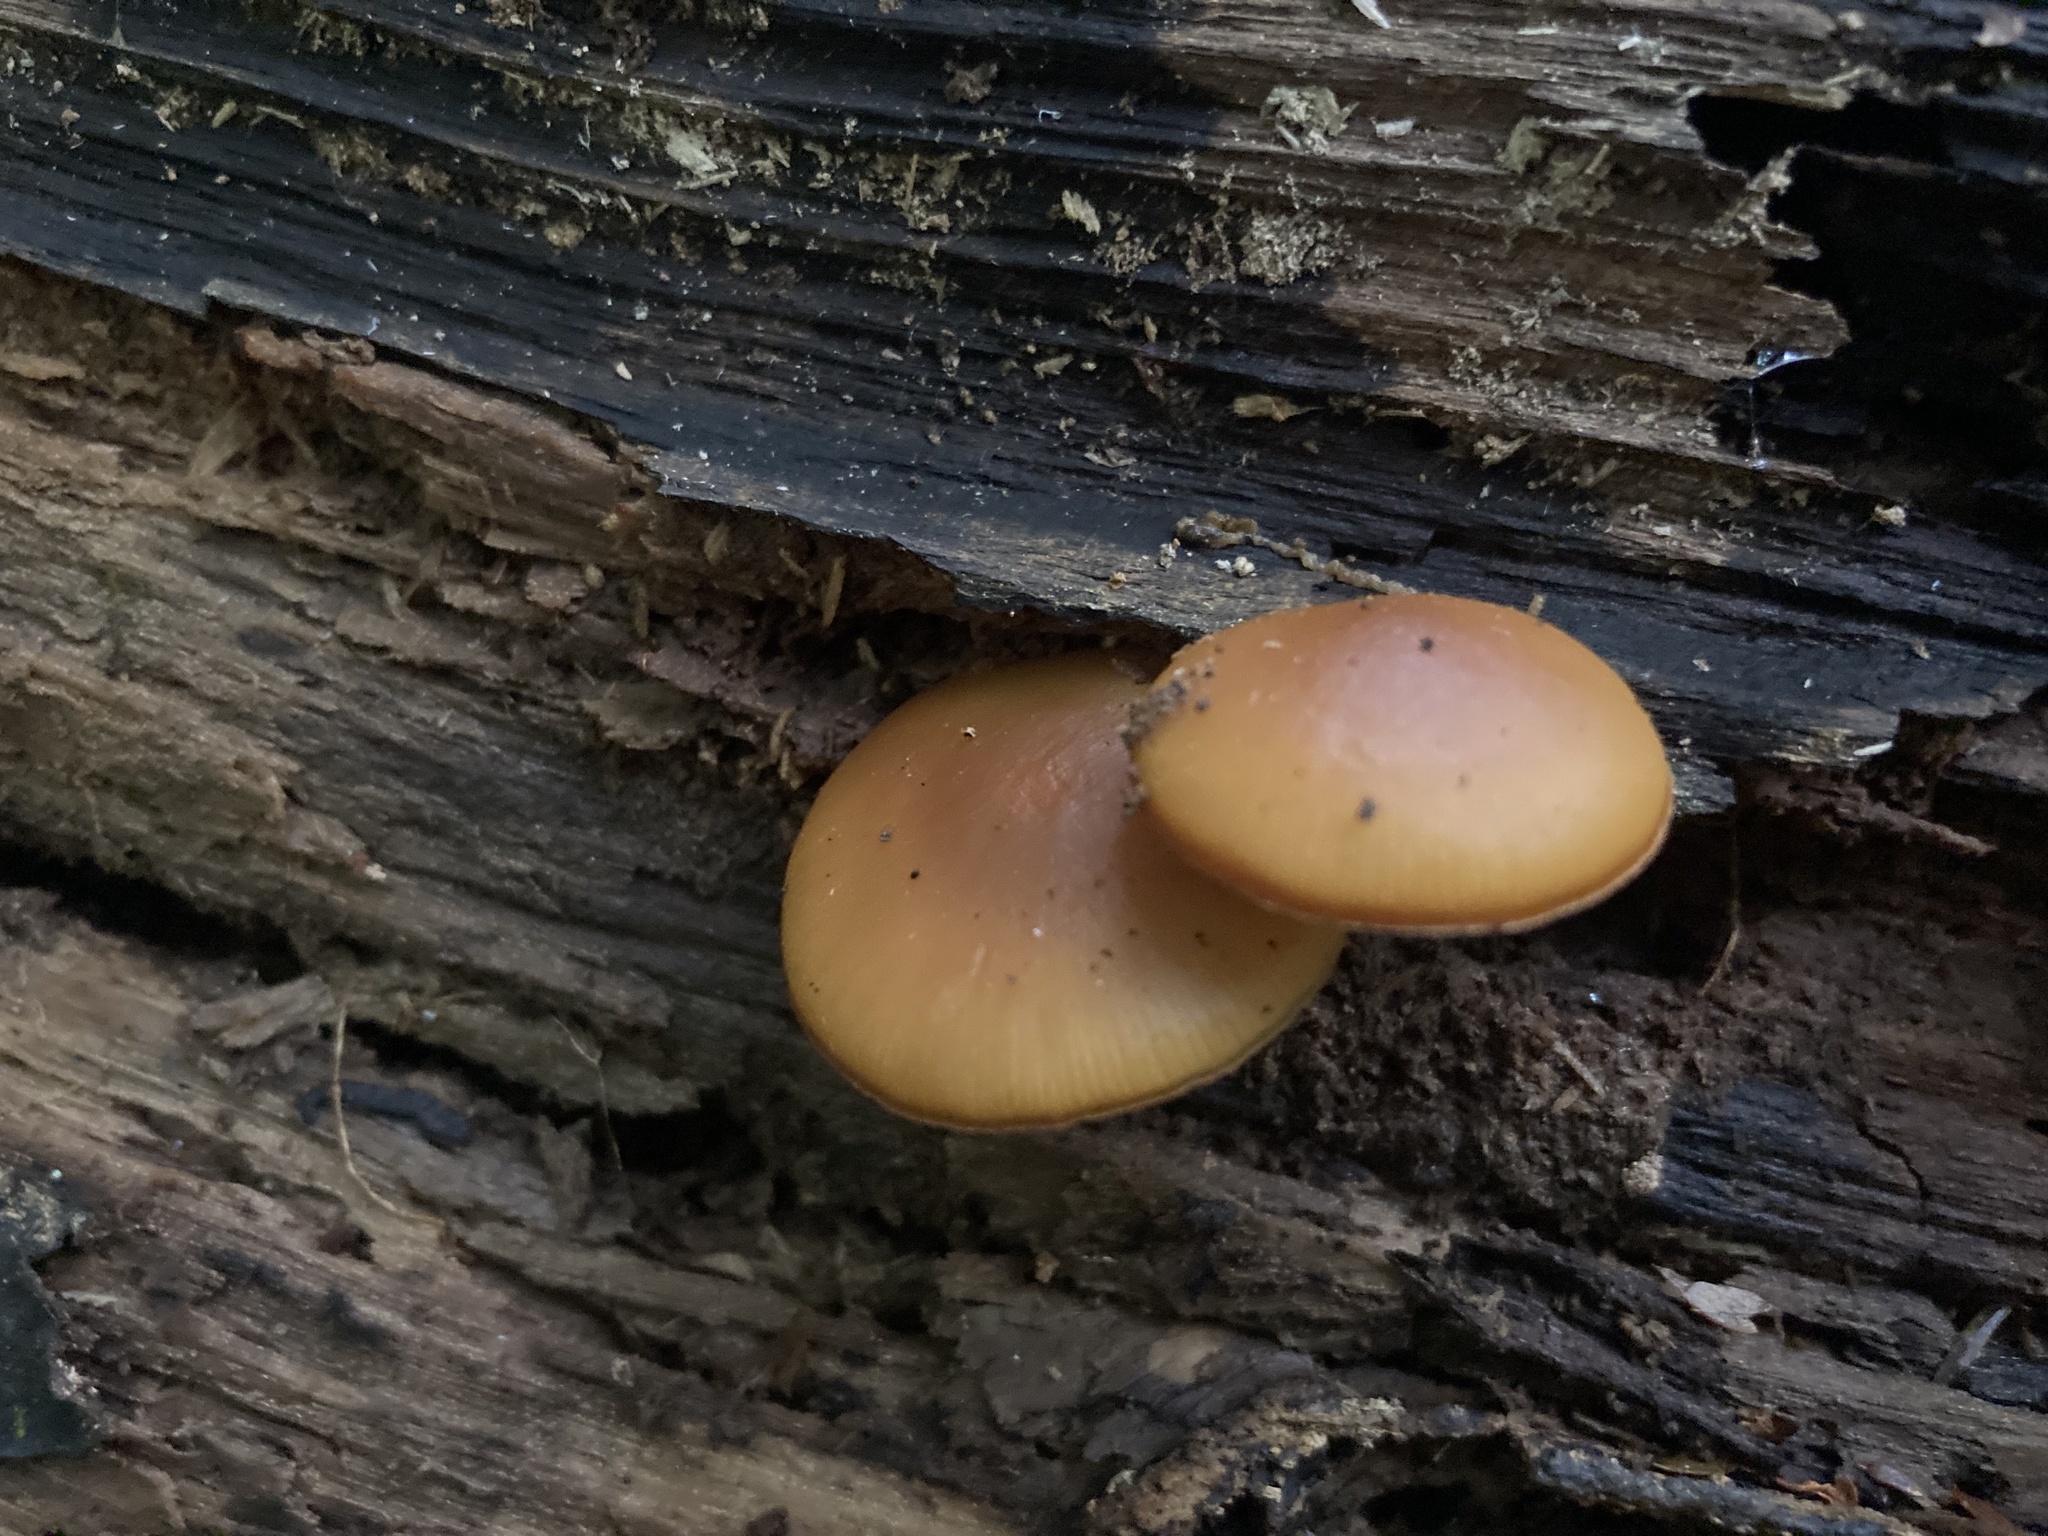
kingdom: Fungi
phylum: Basidiomycota
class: Agaricomycetes
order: Agaricales
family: Hymenogastraceae
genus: Galerina
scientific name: Galerina marginata
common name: Funeral bell
